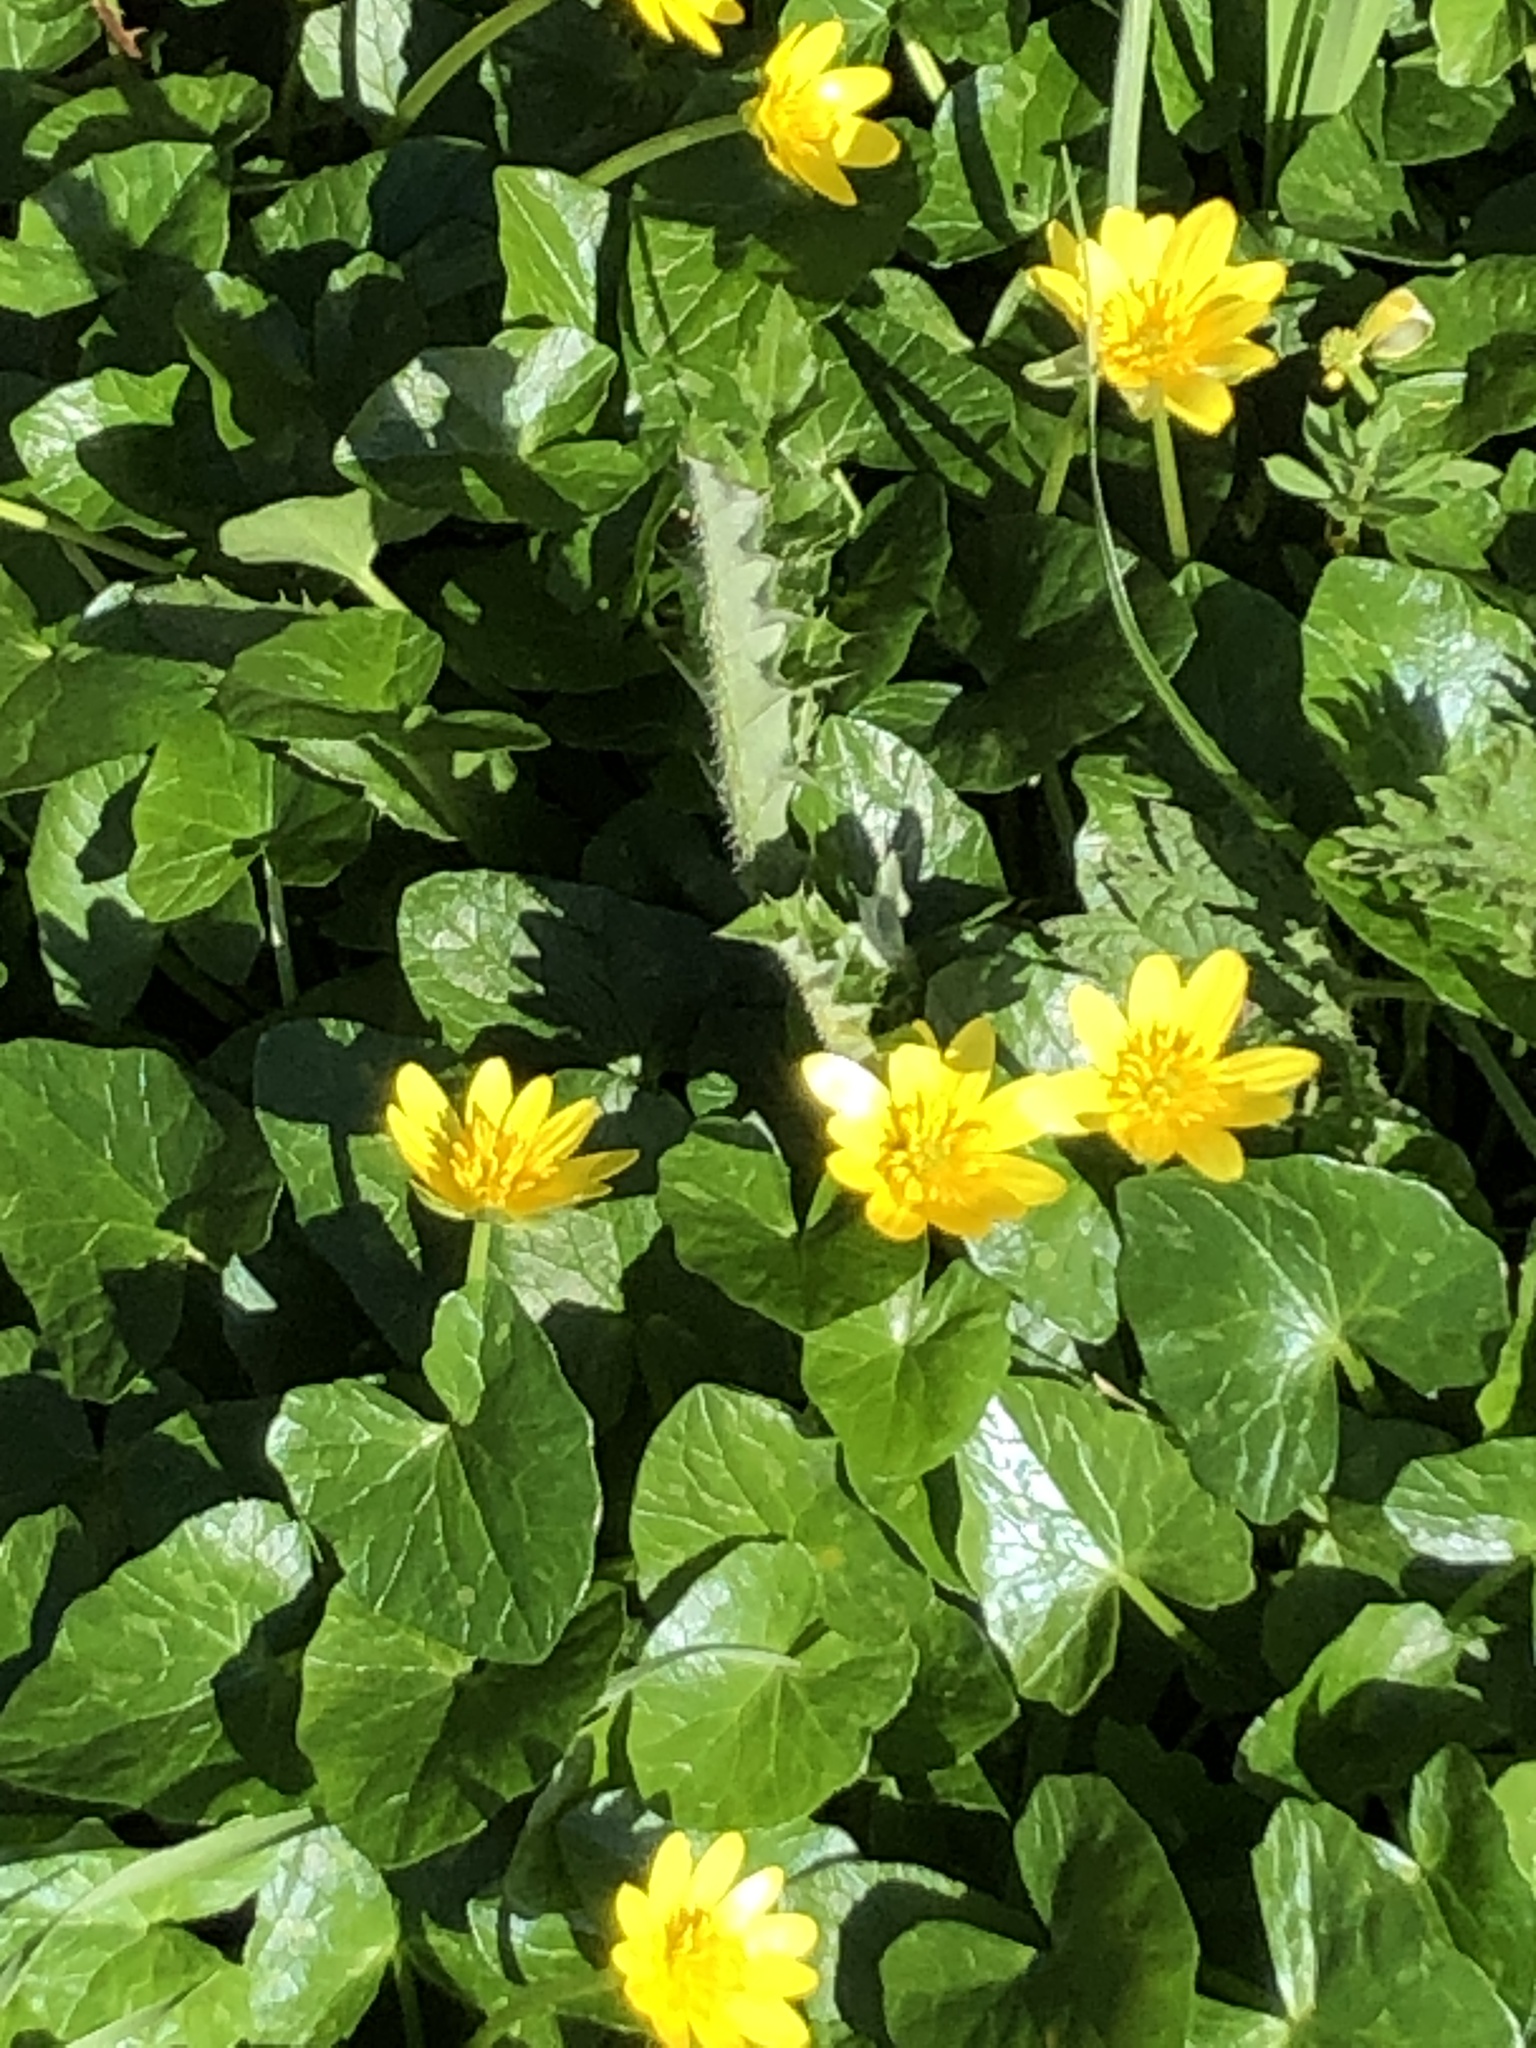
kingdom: Plantae
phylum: Tracheophyta
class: Magnoliopsida
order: Ranunculales
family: Ranunculaceae
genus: Ficaria
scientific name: Ficaria verna
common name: Lesser celandine
